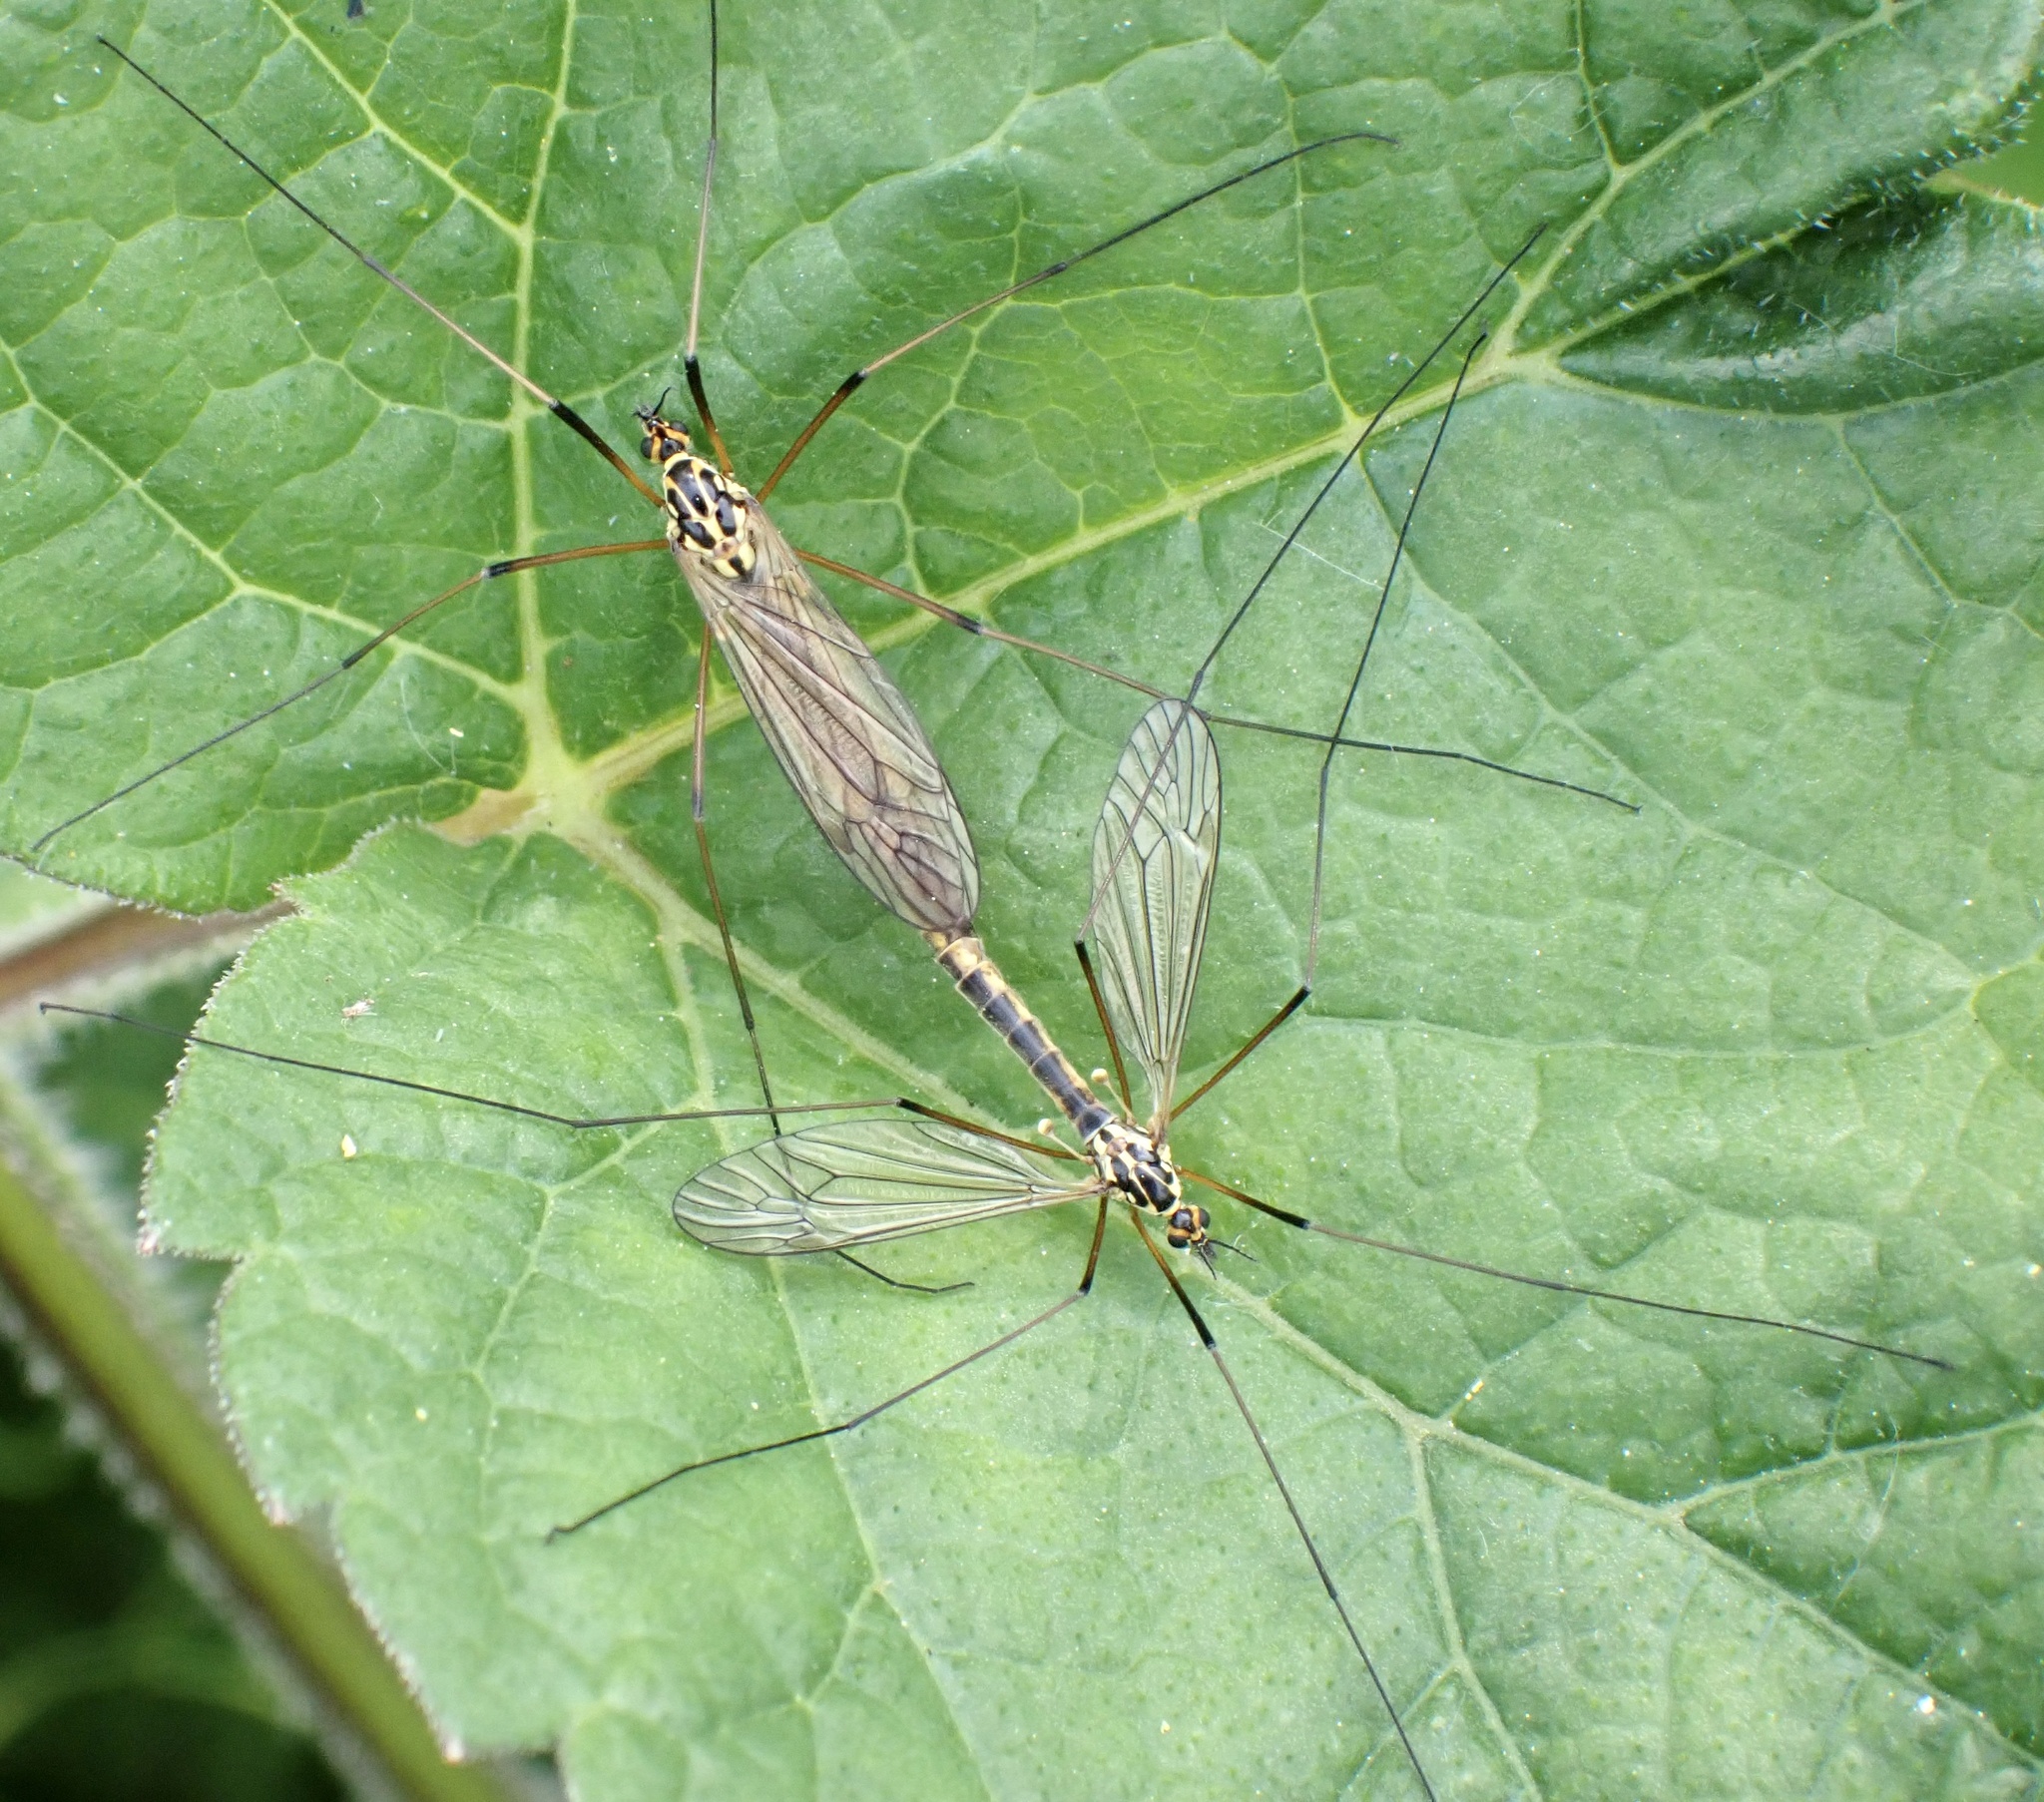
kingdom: Animalia
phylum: Arthropoda
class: Insecta
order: Diptera
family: Tipulidae
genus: Nephrotoma
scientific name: Nephrotoma appendiculata
